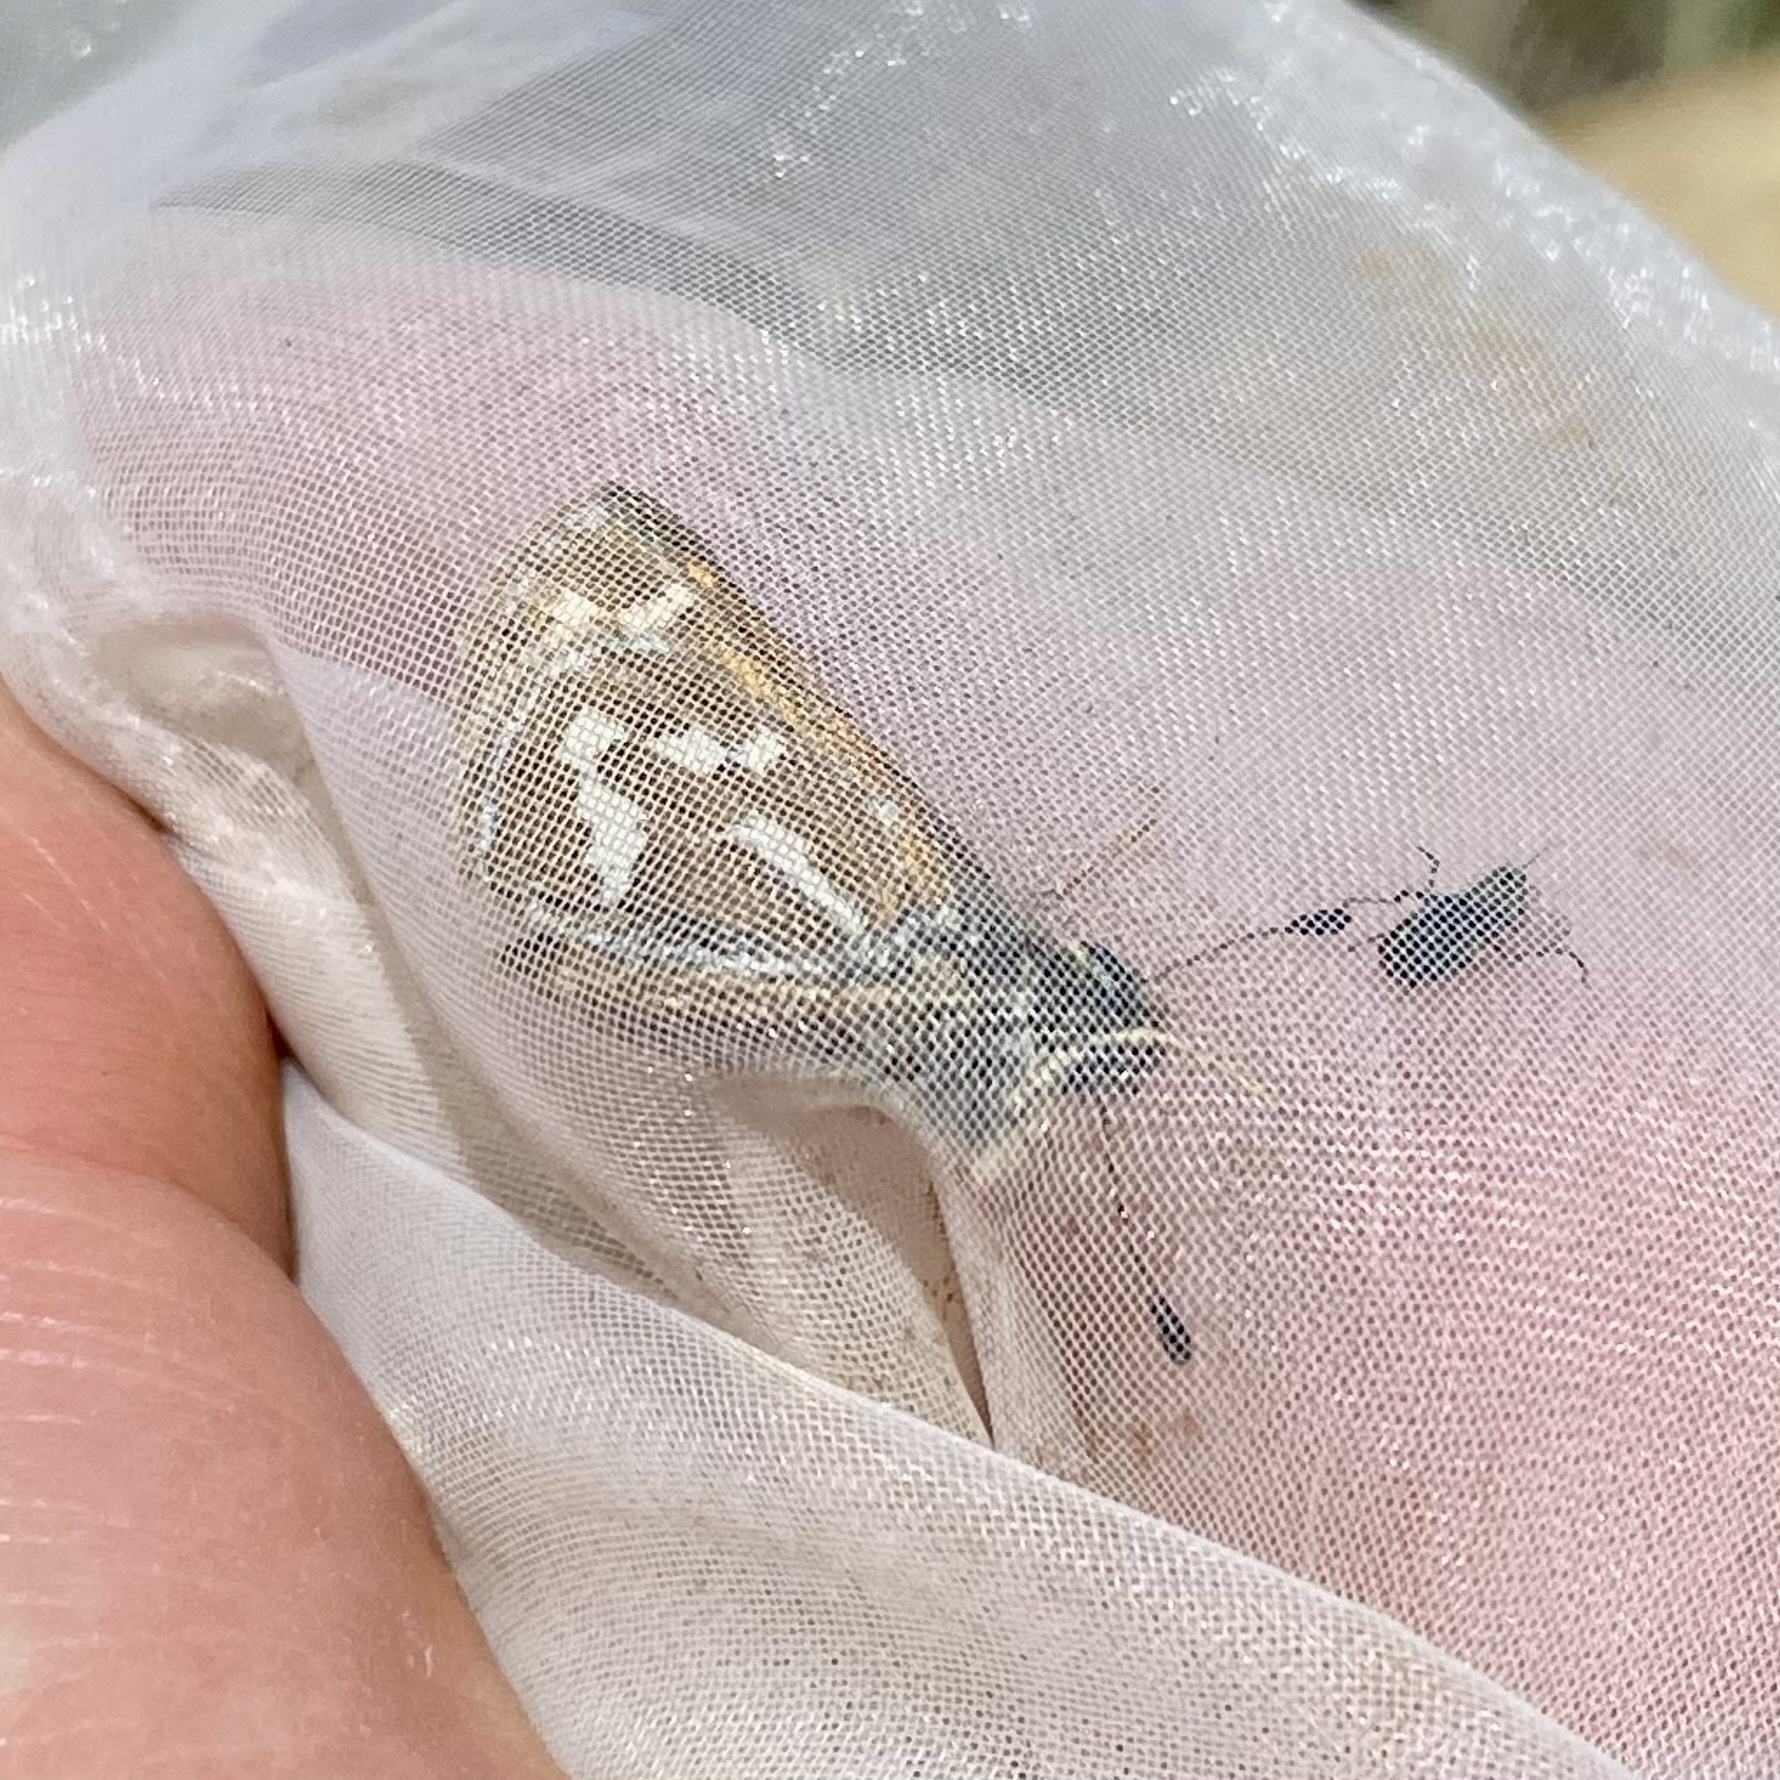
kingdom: Animalia
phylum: Arthropoda
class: Insecta
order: Lepidoptera
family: Hesperiidae
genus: Stinga
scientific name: Stinga morrisoni
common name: Morrison's skipper
